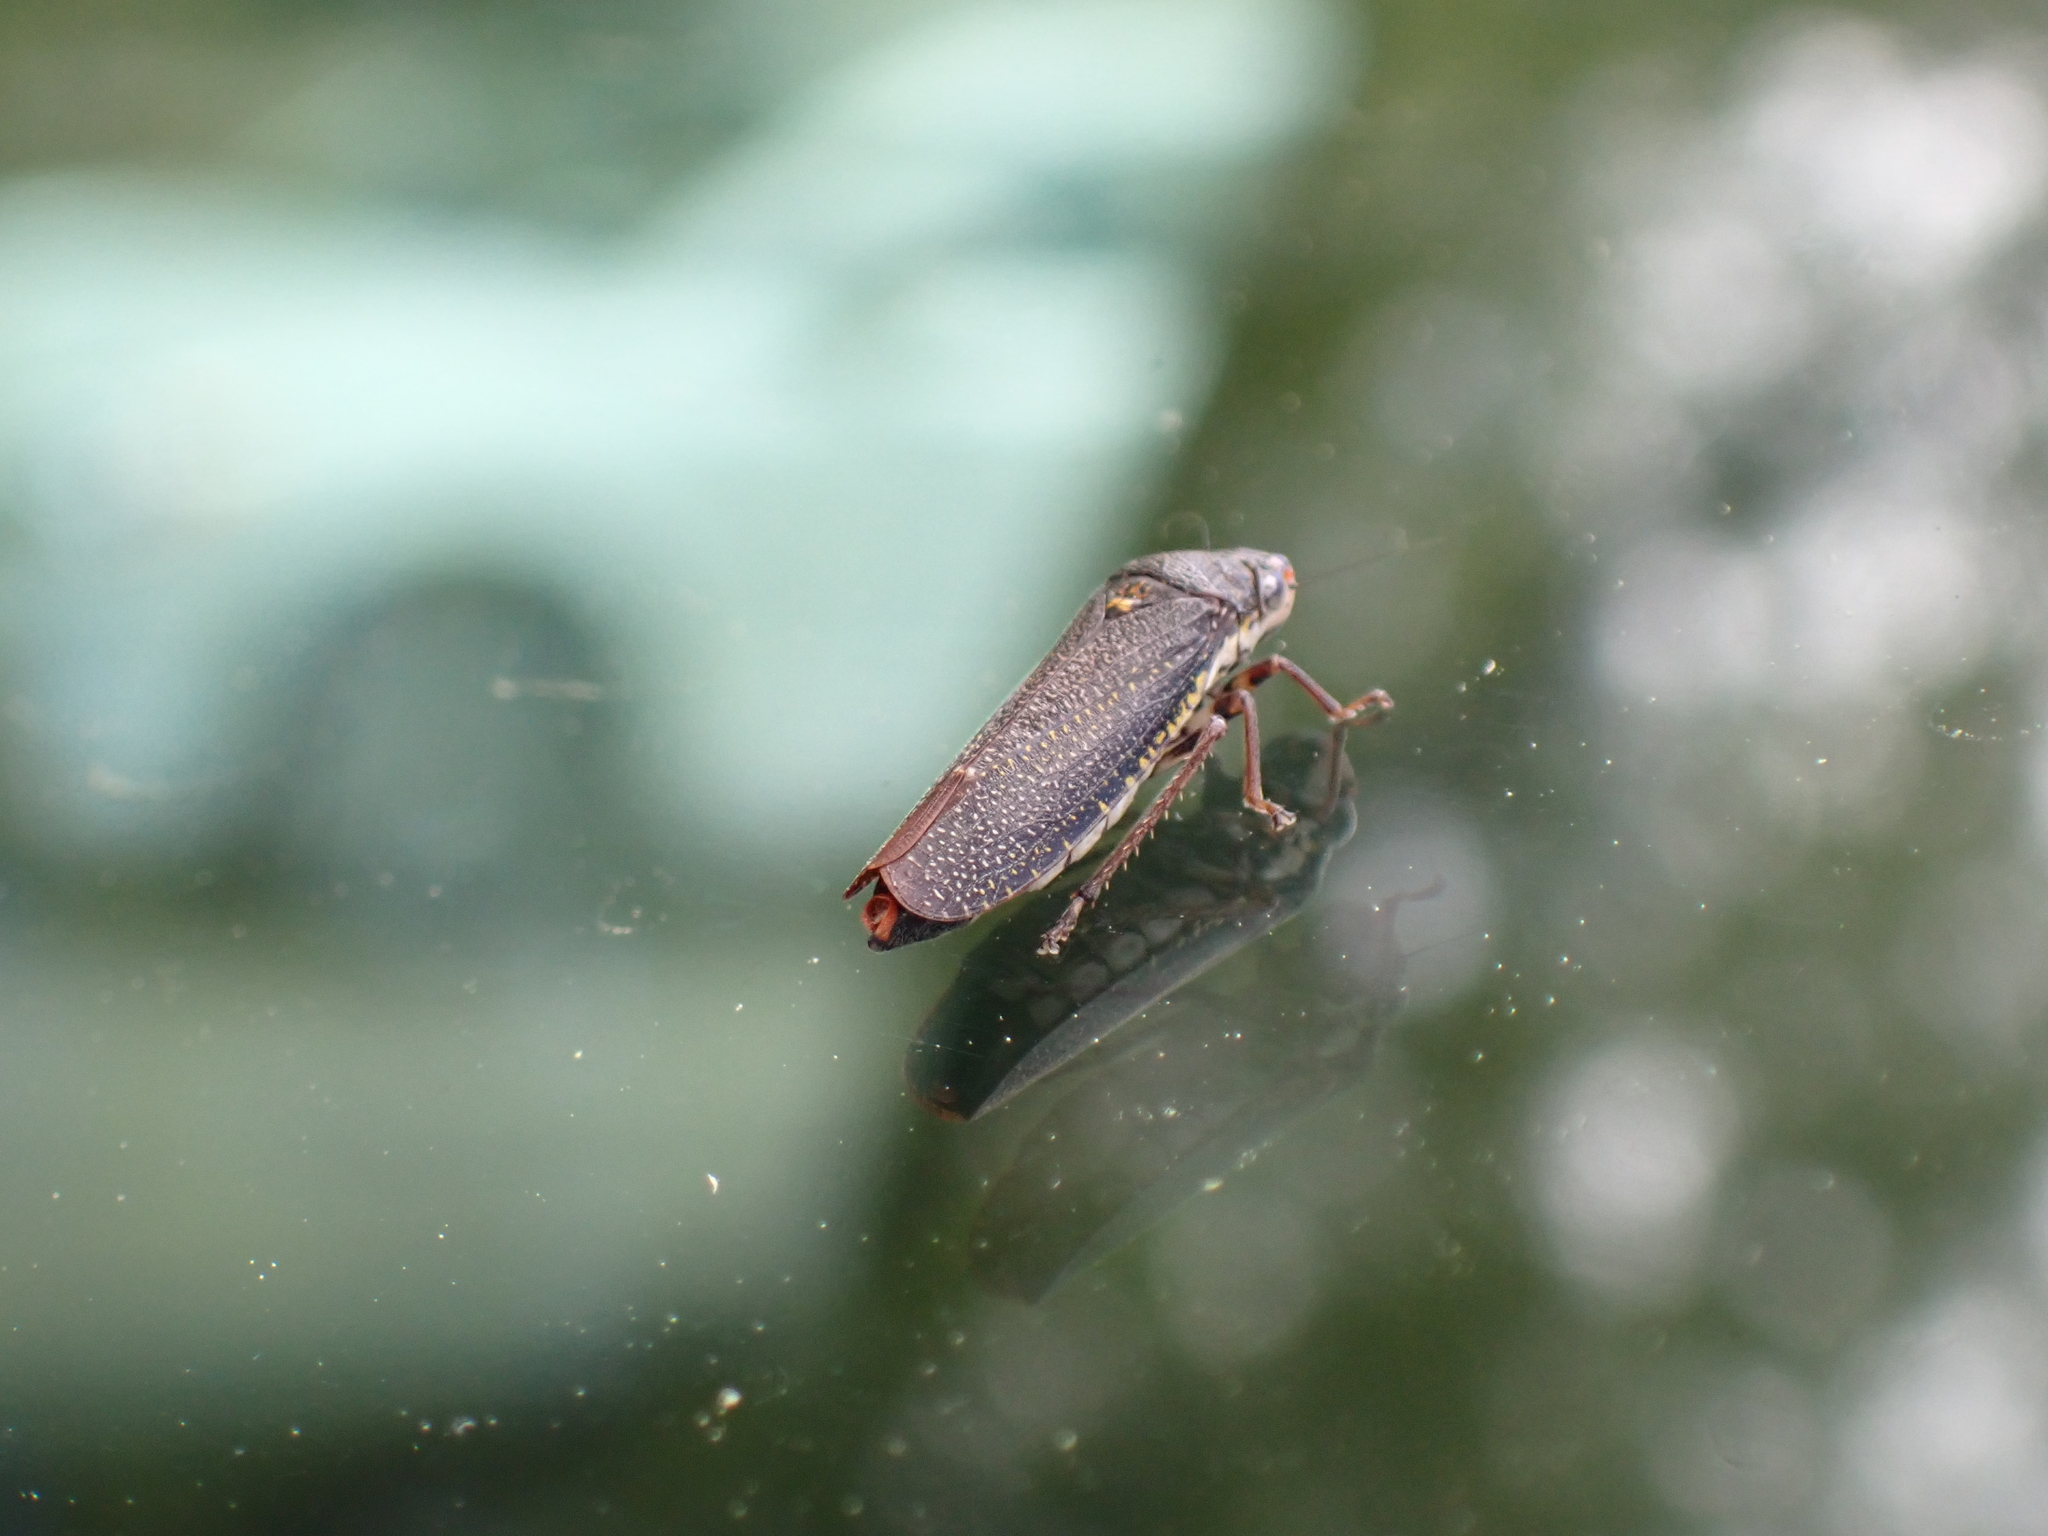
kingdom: Animalia
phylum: Arthropoda
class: Insecta
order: Hemiptera
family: Cicadellidae
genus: Paraulacizes
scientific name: Paraulacizes irrorata
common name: Speckled sharpshooter
